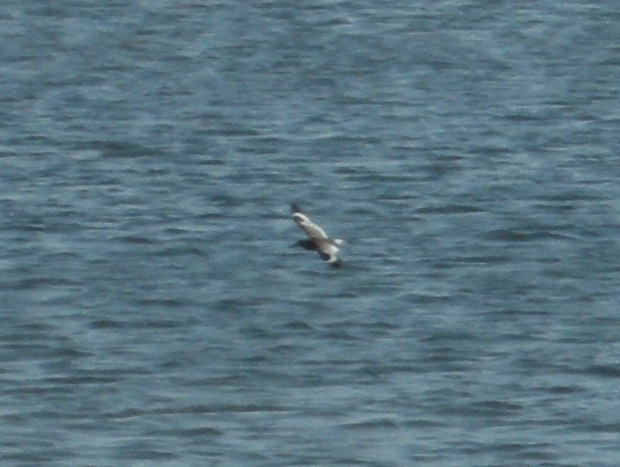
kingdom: Animalia
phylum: Chordata
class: Aves
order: Charadriiformes
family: Scolopacidae
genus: Tringa
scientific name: Tringa semipalmata
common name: Willet
